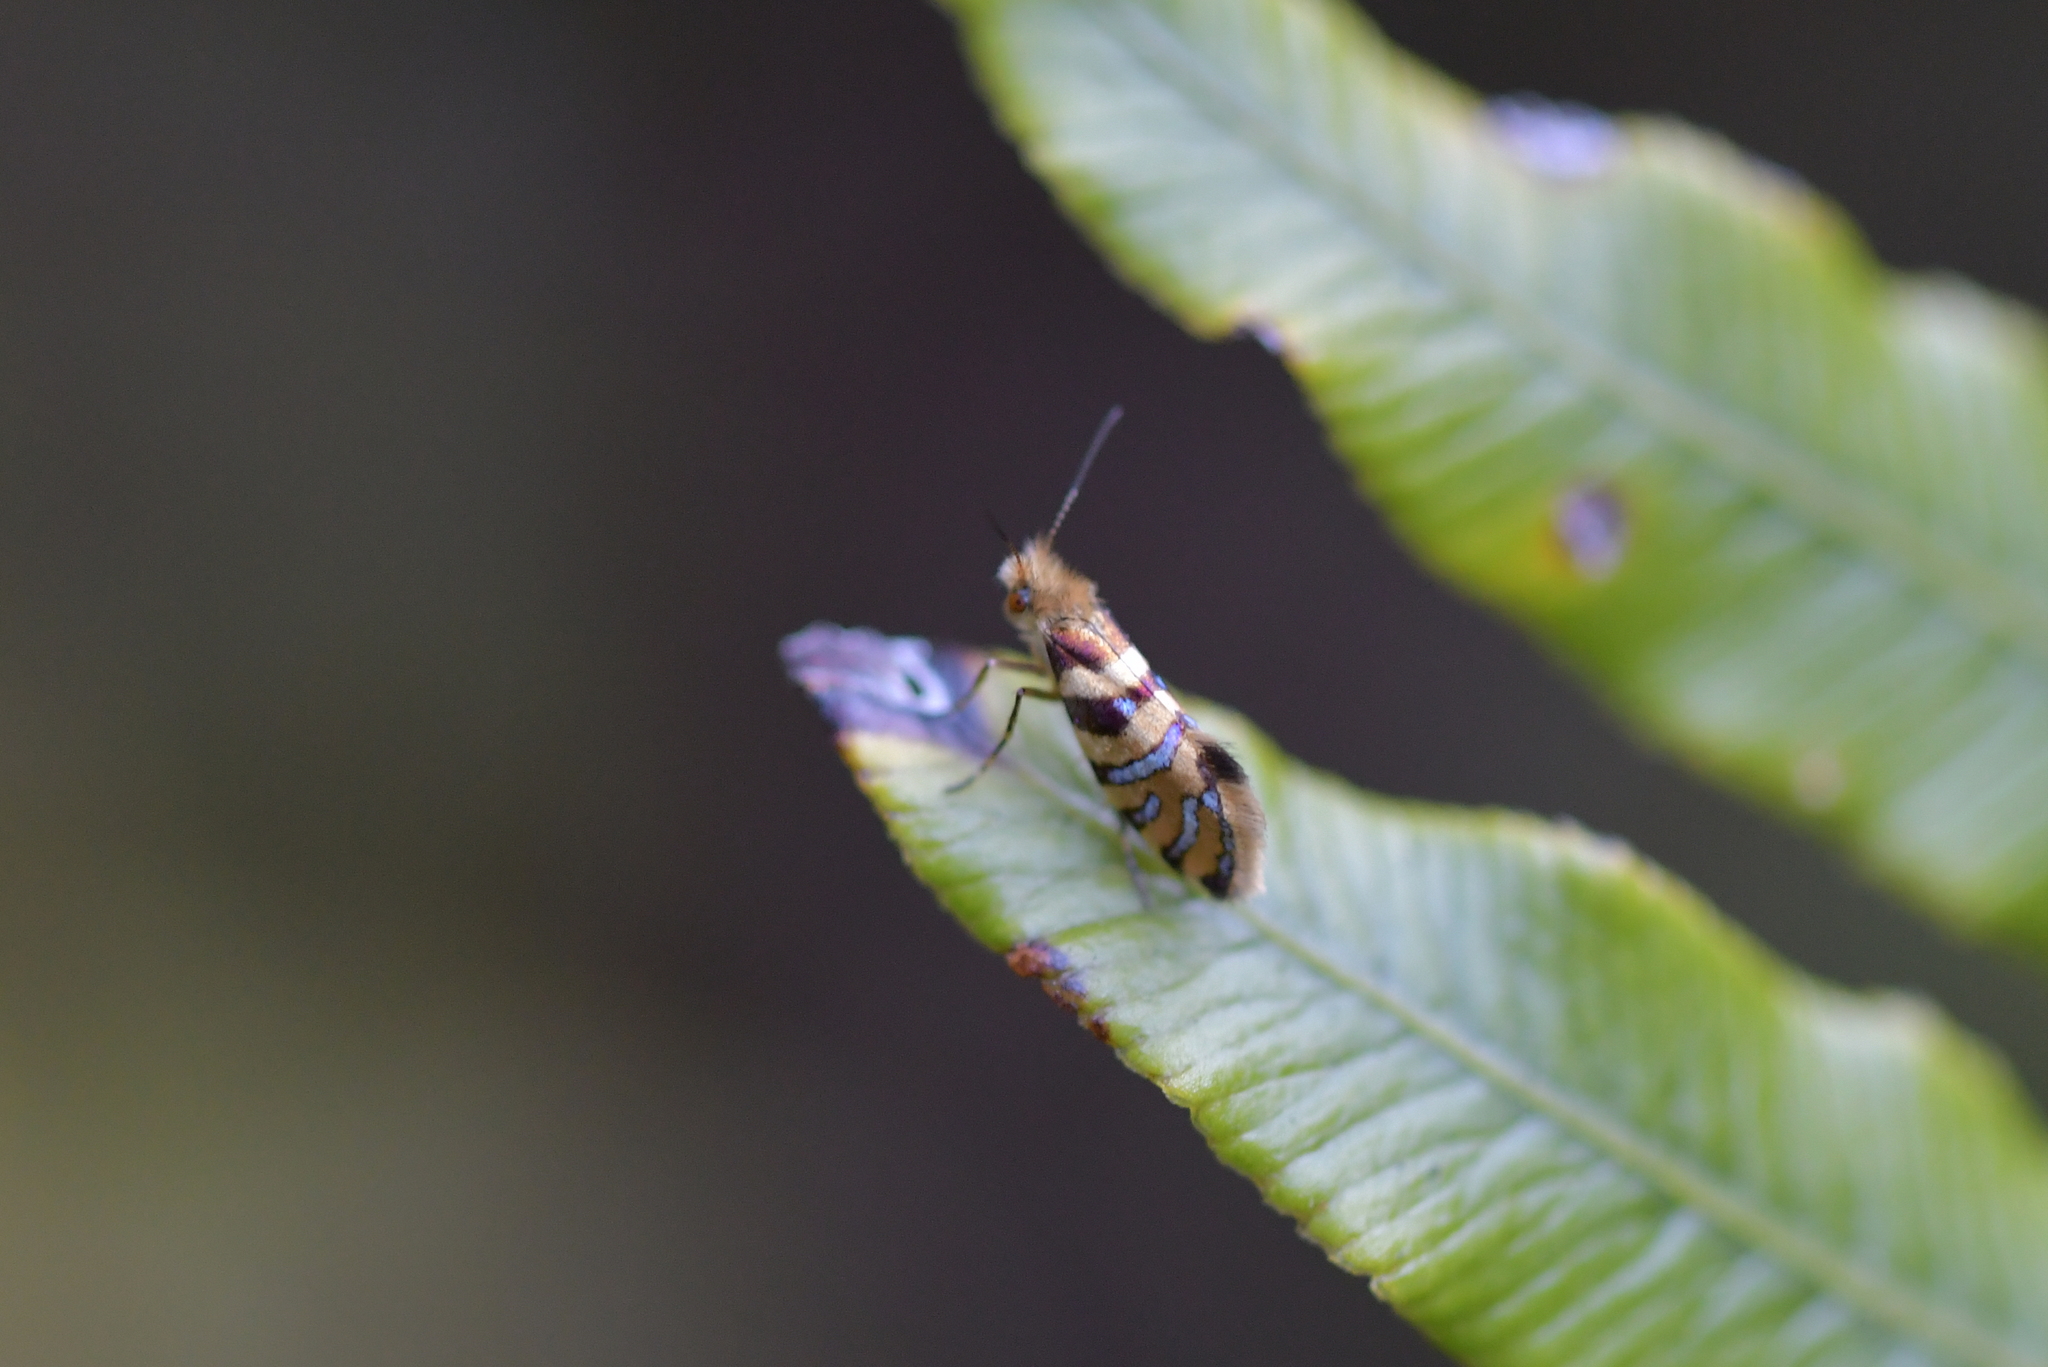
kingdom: Animalia
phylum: Arthropoda
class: Insecta
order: Lepidoptera
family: Micropterigidae
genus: Micropardalis
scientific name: Micropardalis aurella
